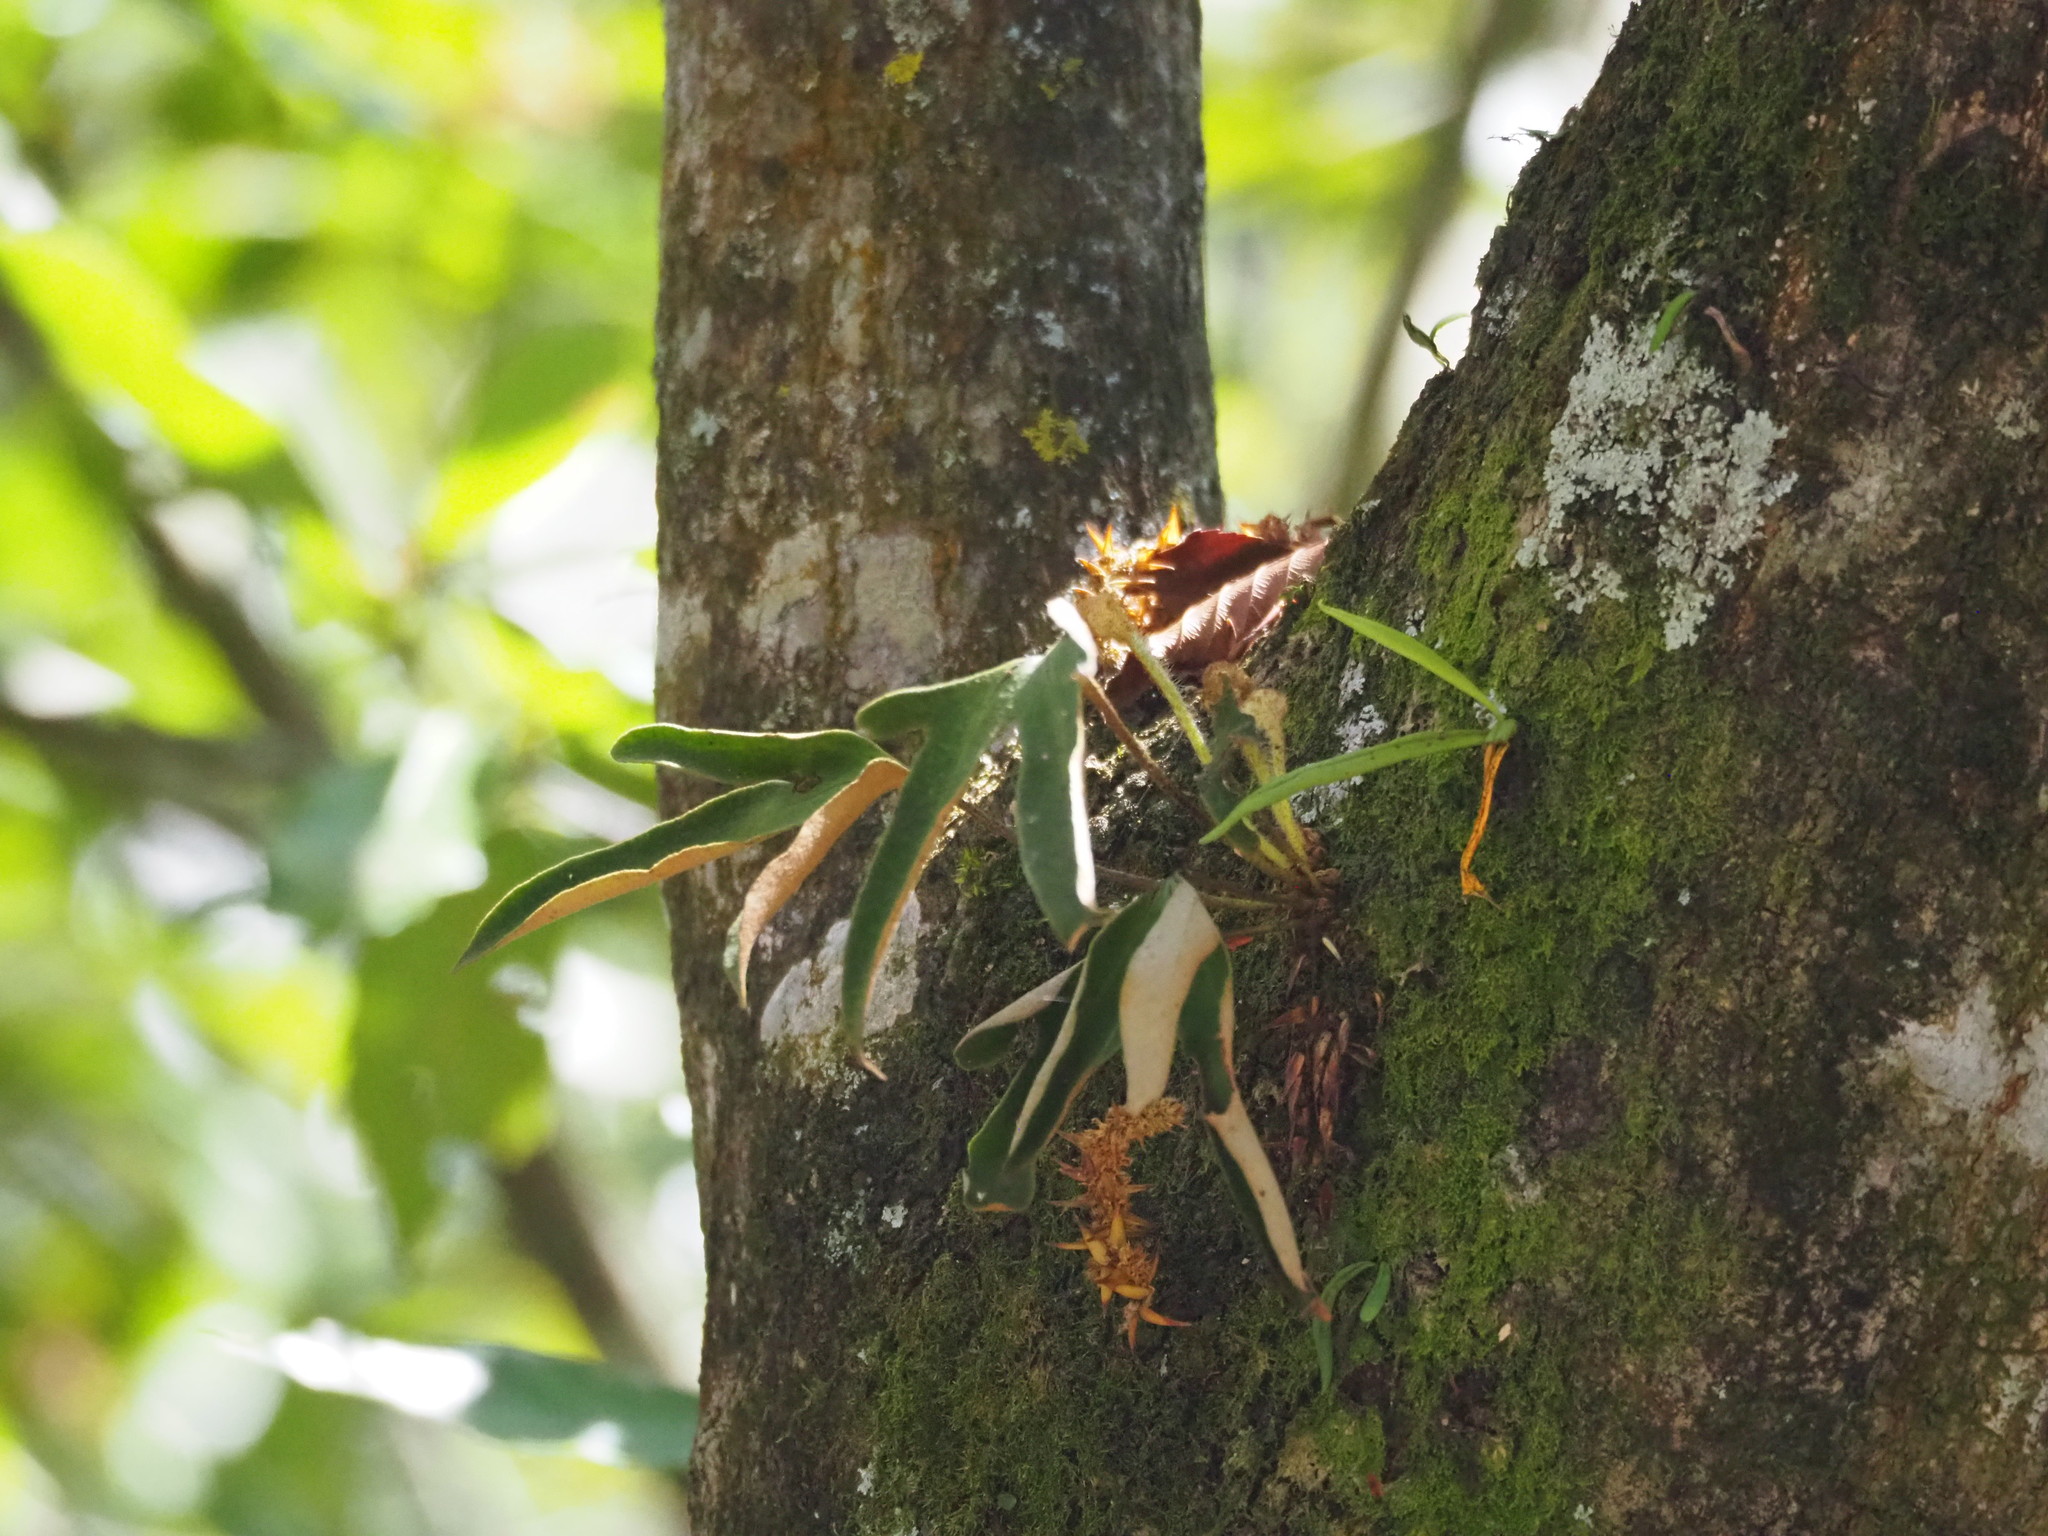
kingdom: Plantae
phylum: Tracheophyta
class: Polypodiopsida
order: Polypodiales
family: Polypodiaceae
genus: Pyrrosia
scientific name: Pyrrosia polydactyla
